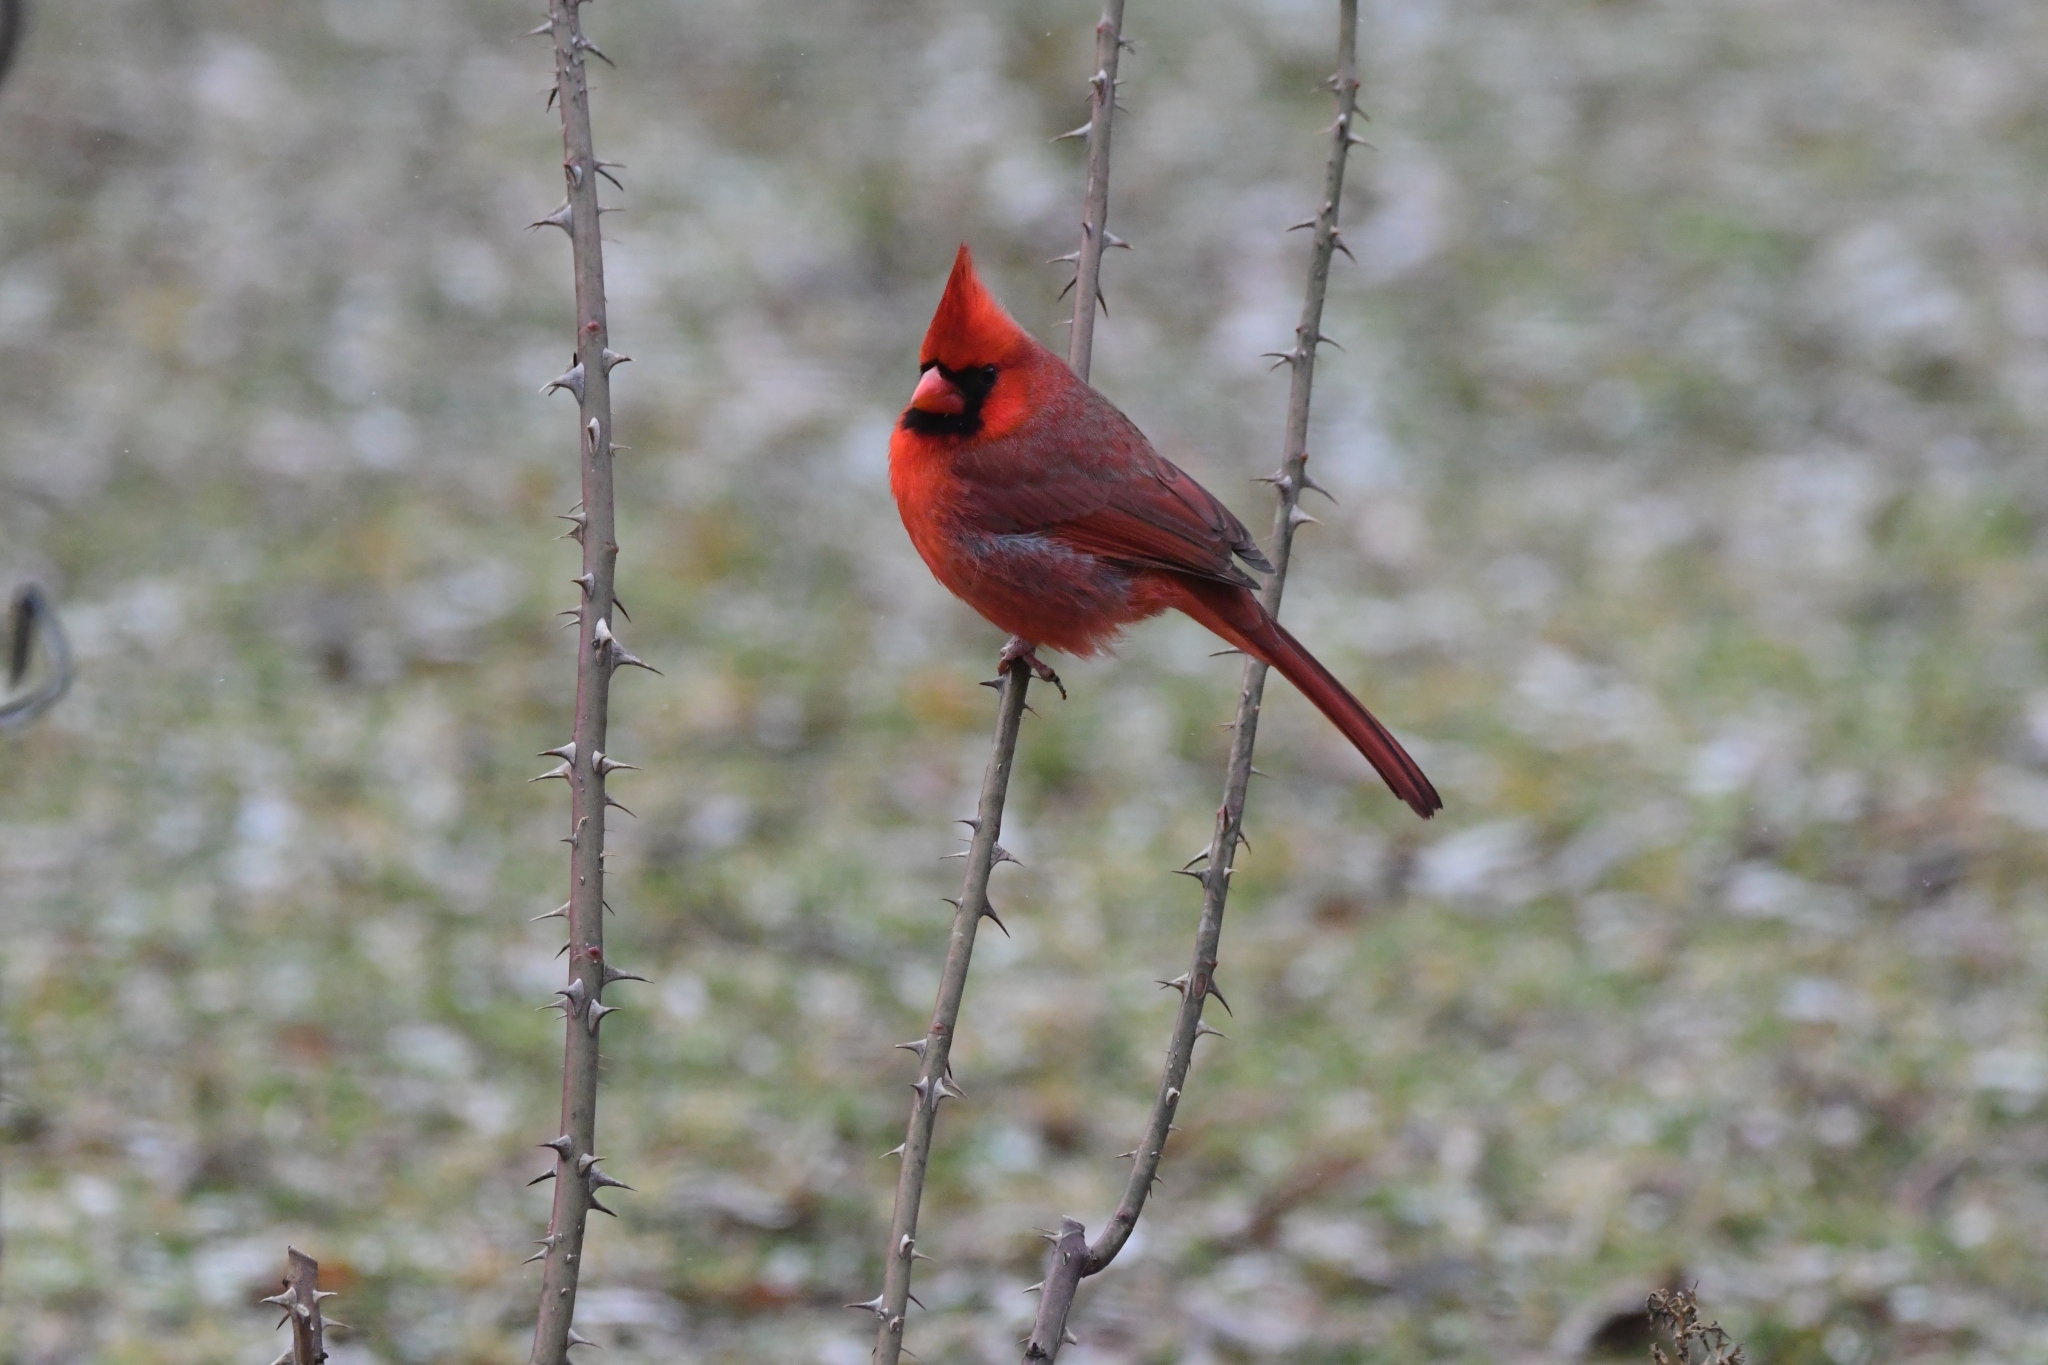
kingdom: Animalia
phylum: Chordata
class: Aves
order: Passeriformes
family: Cardinalidae
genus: Cardinalis
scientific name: Cardinalis cardinalis
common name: Northern cardinal
